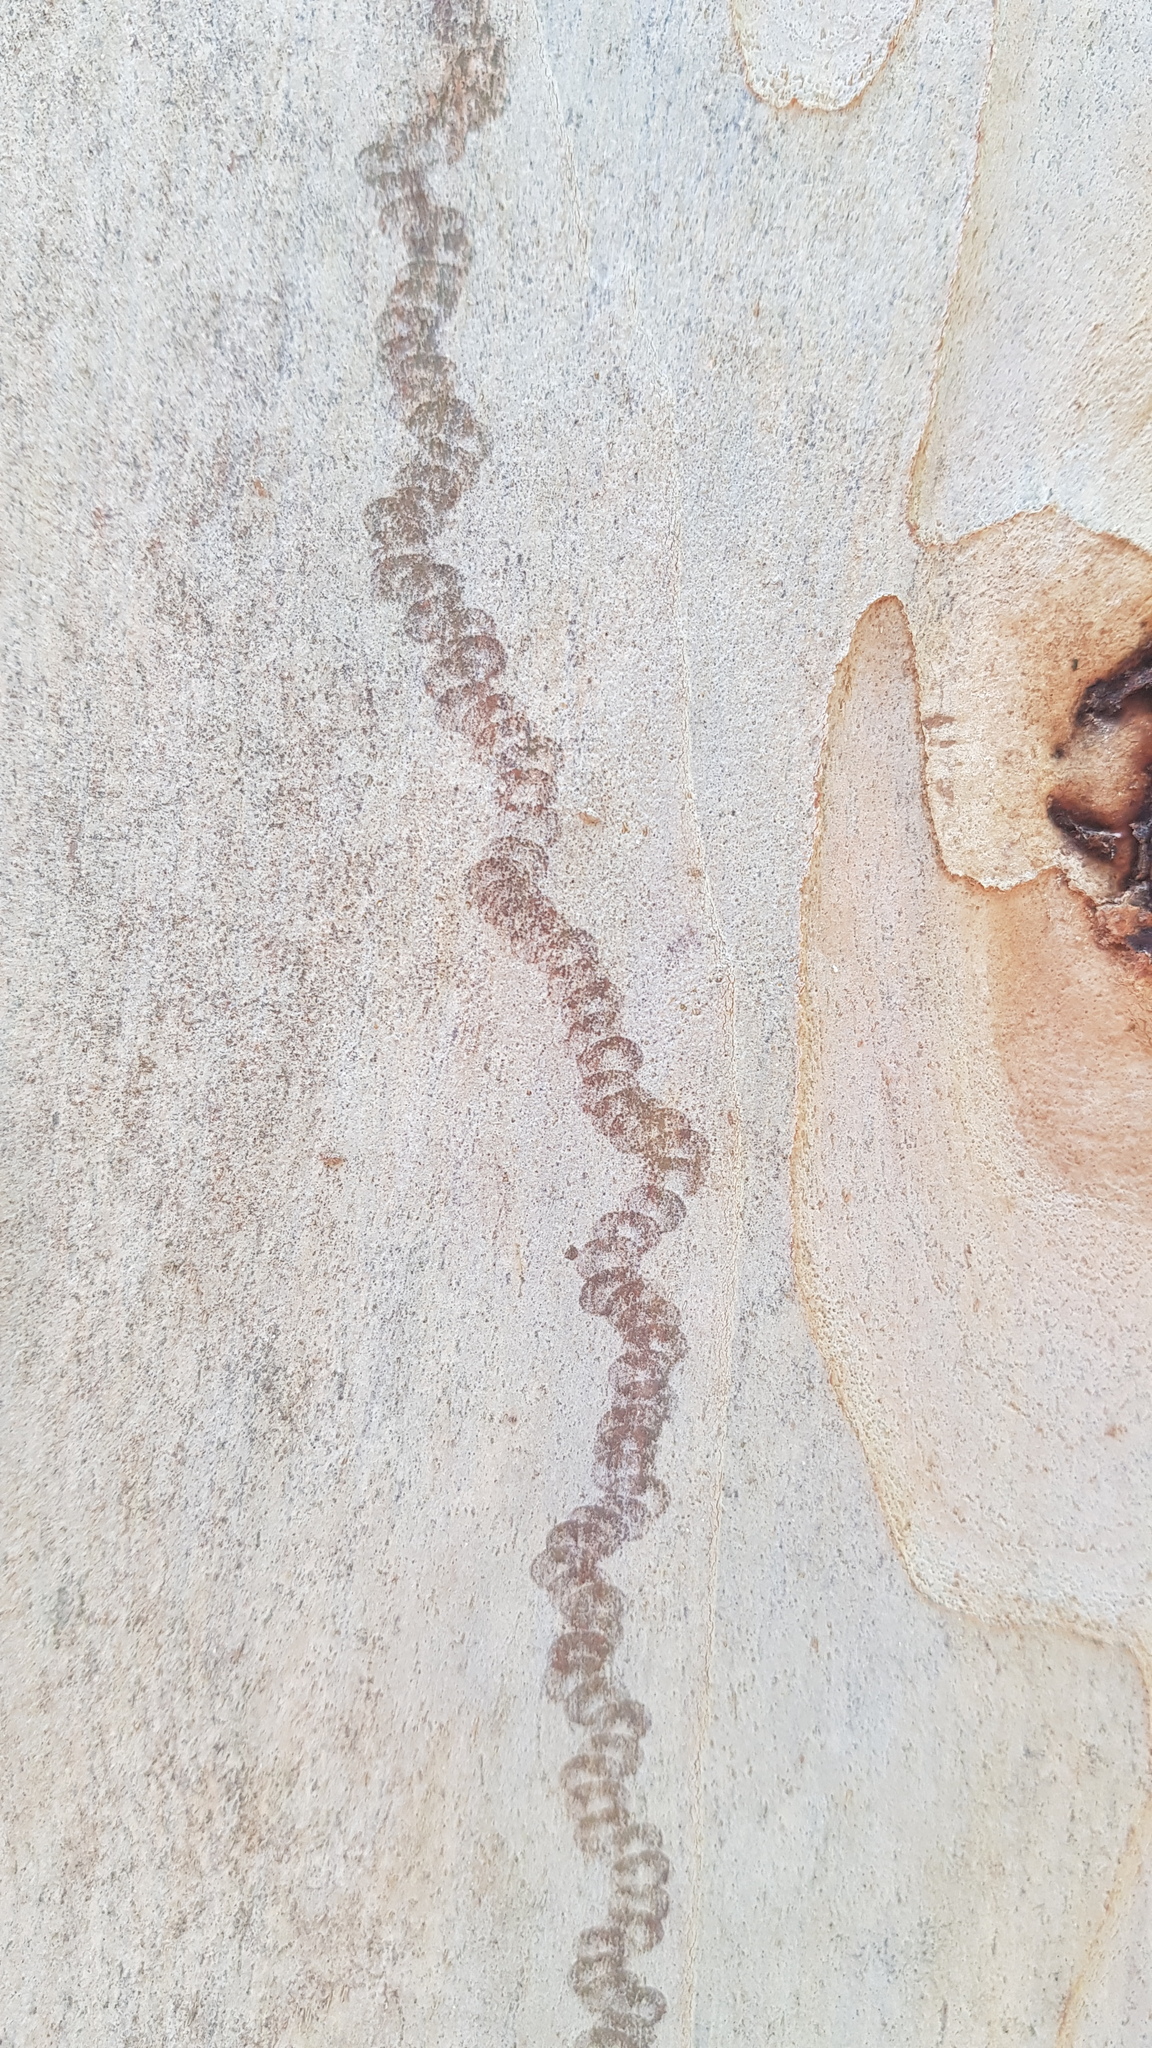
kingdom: Animalia
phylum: Mollusca
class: Gastropoda
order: Stylommatophora
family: Athoracophoridae
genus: Triboniophorus
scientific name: Triboniophorus graeffei
